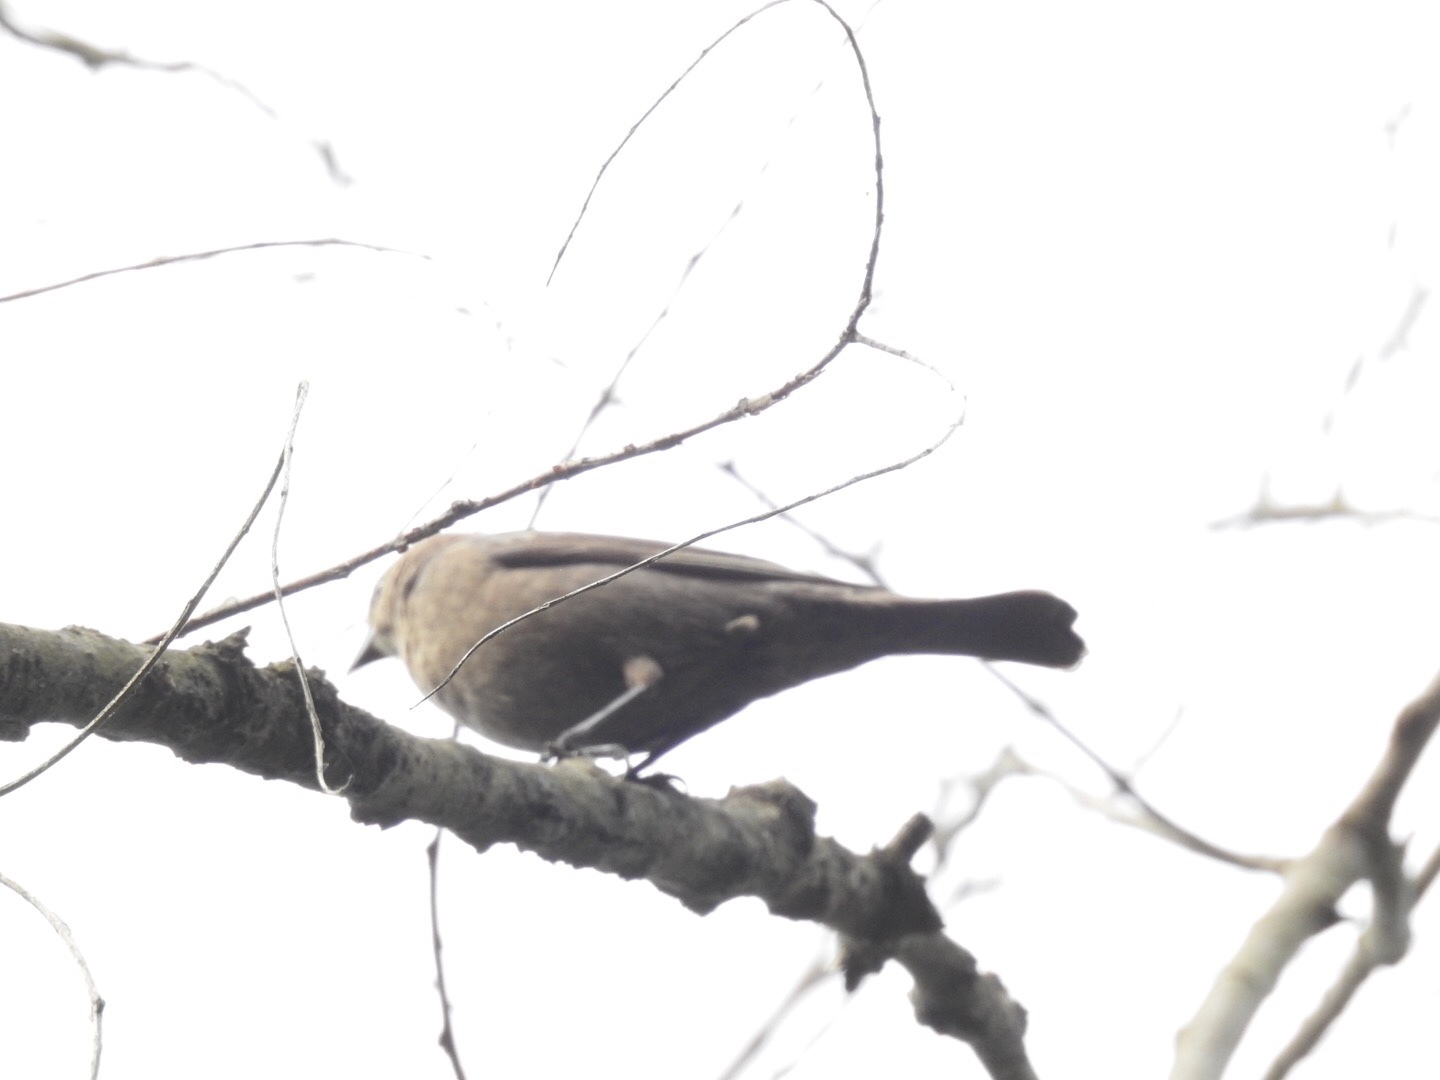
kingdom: Animalia
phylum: Chordata
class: Aves
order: Passeriformes
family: Icteridae
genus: Molothrus
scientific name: Molothrus ater
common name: Brown-headed cowbird
